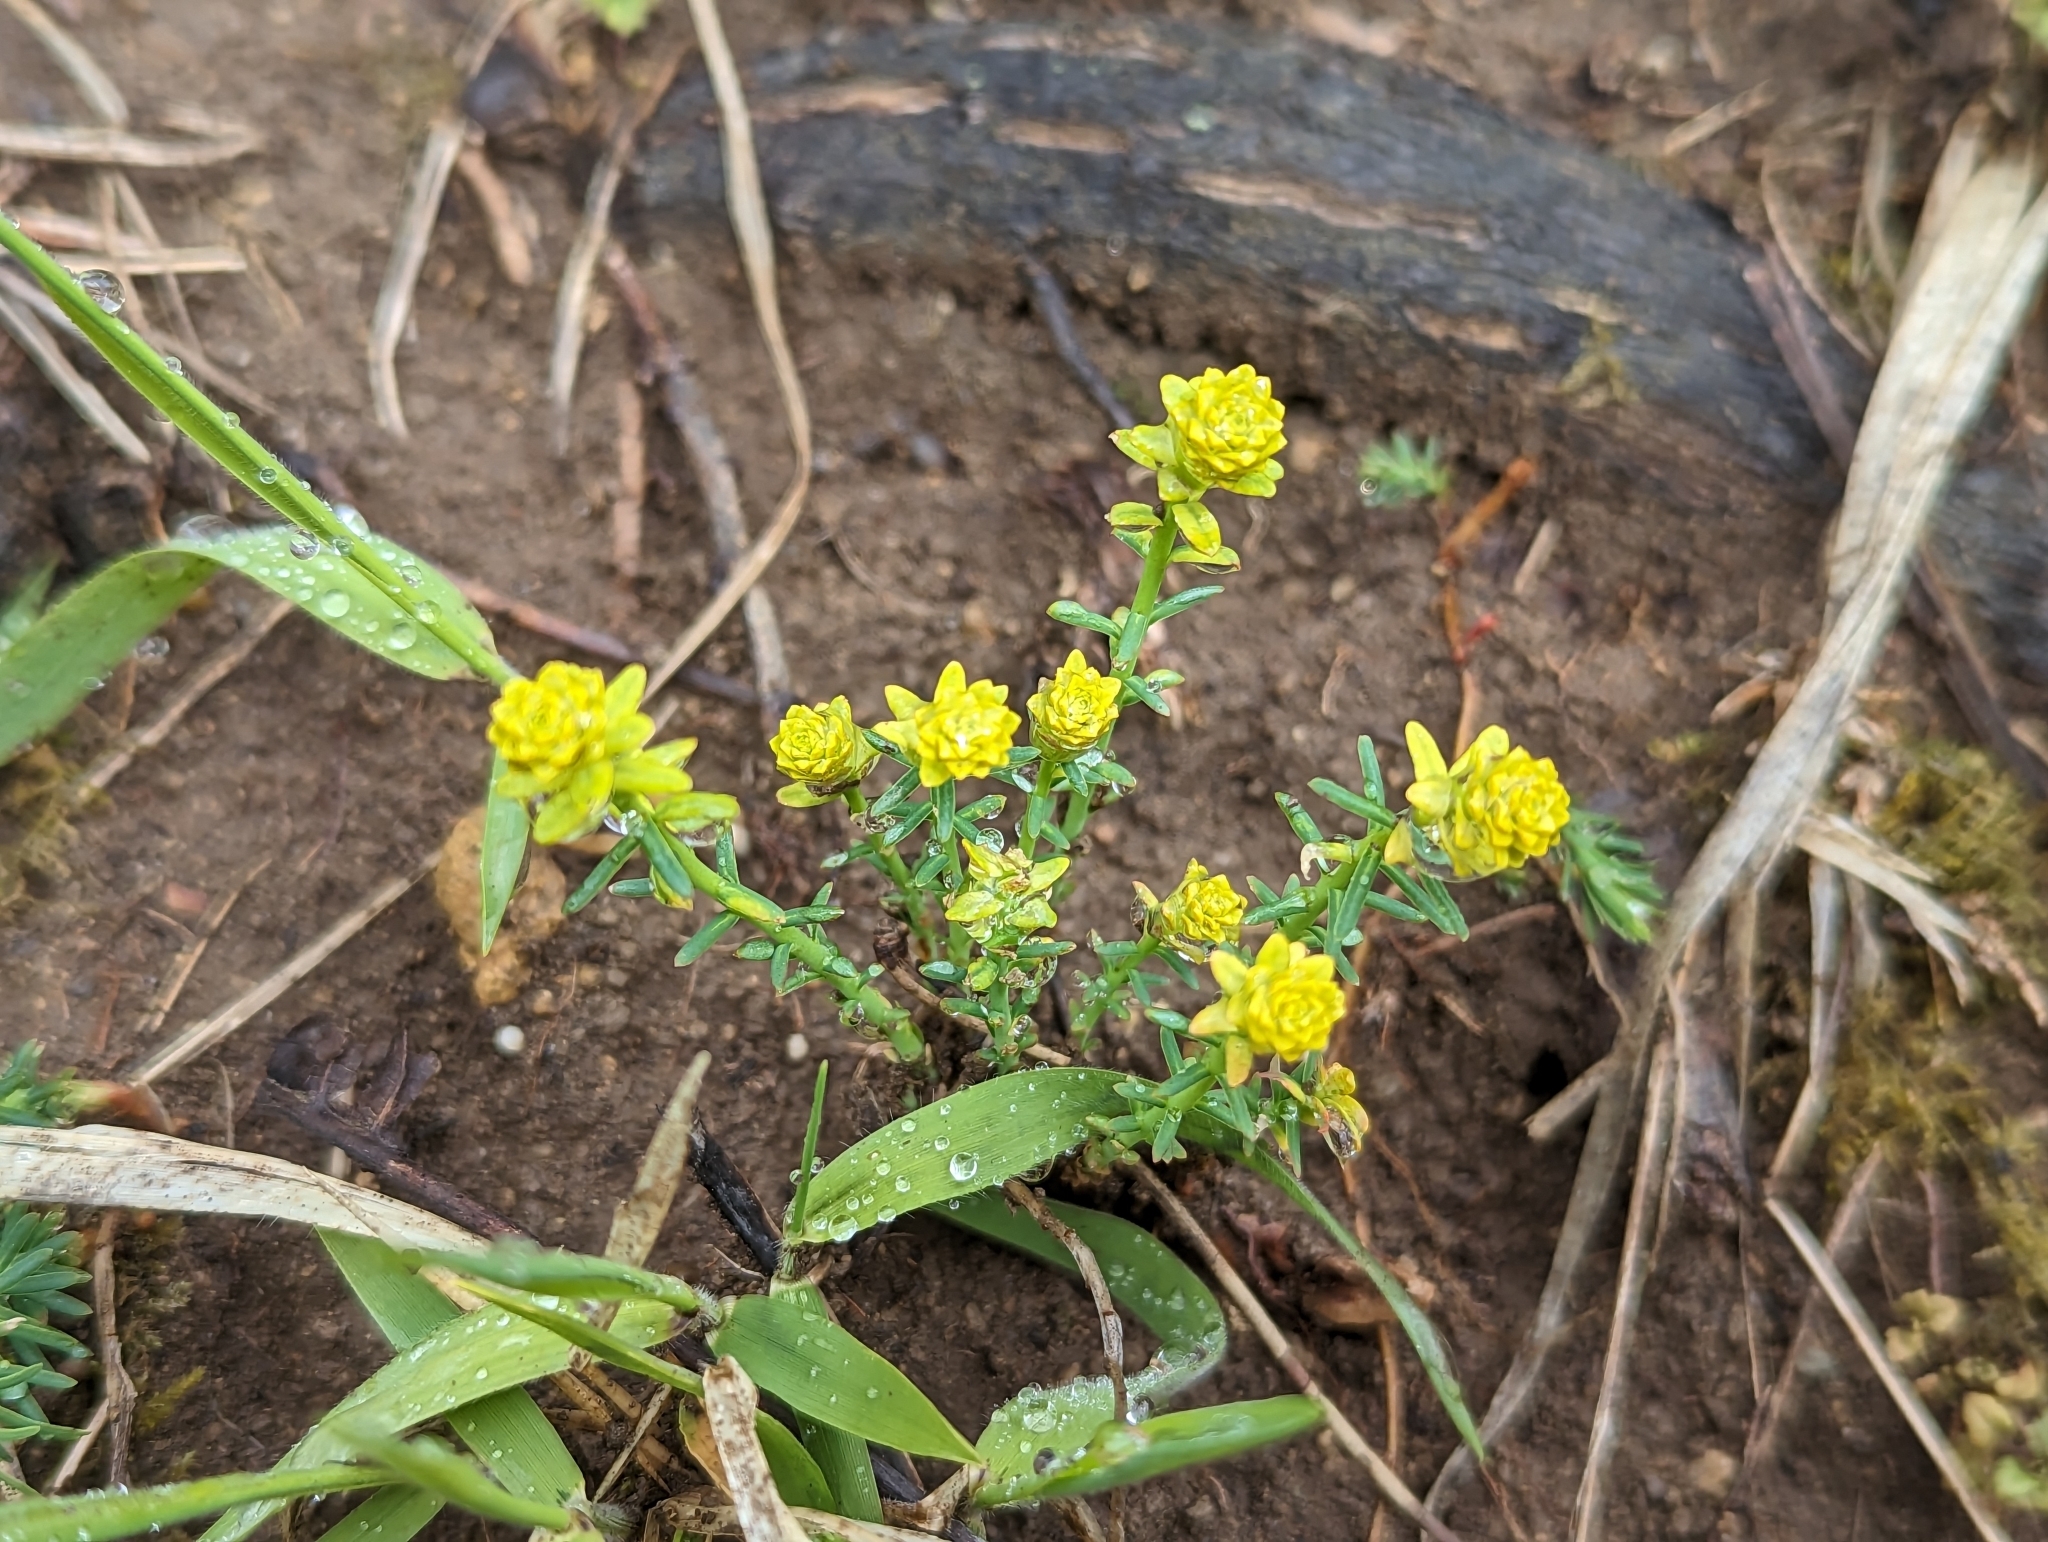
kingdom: Plantae
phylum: Tracheophyta
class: Magnoliopsida
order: Malpighiales
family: Euphorbiaceae
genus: Euphorbia
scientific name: Euphorbia cyparissias
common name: Cypress spurge
